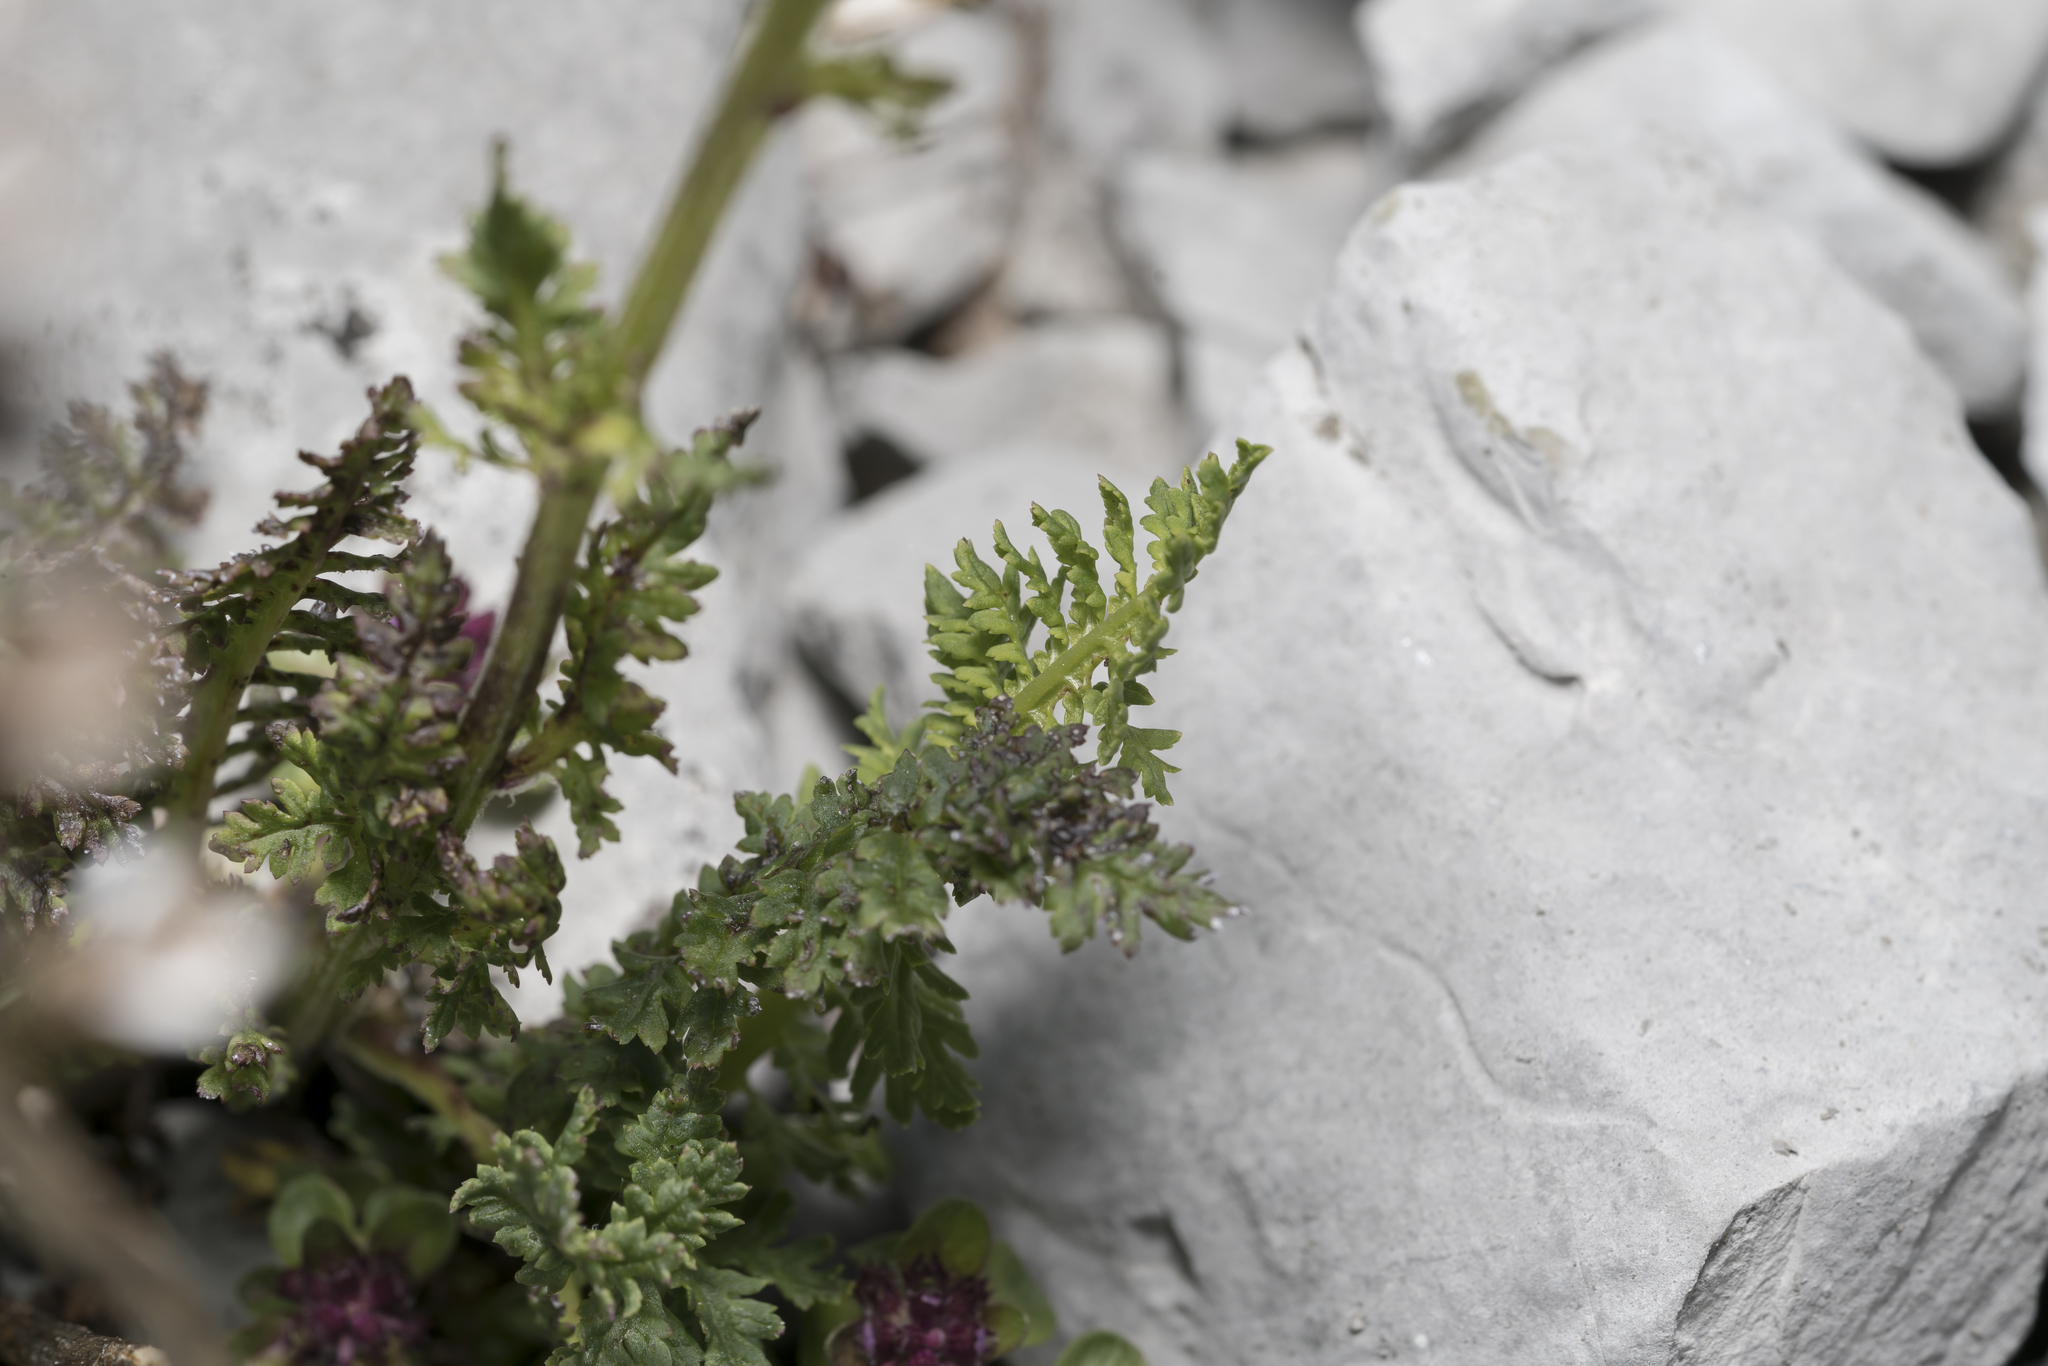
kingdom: Plantae
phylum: Tracheophyta
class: Magnoliopsida
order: Lamiales
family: Orobanchaceae
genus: Pedicularis
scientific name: Pedicularis ascendens
